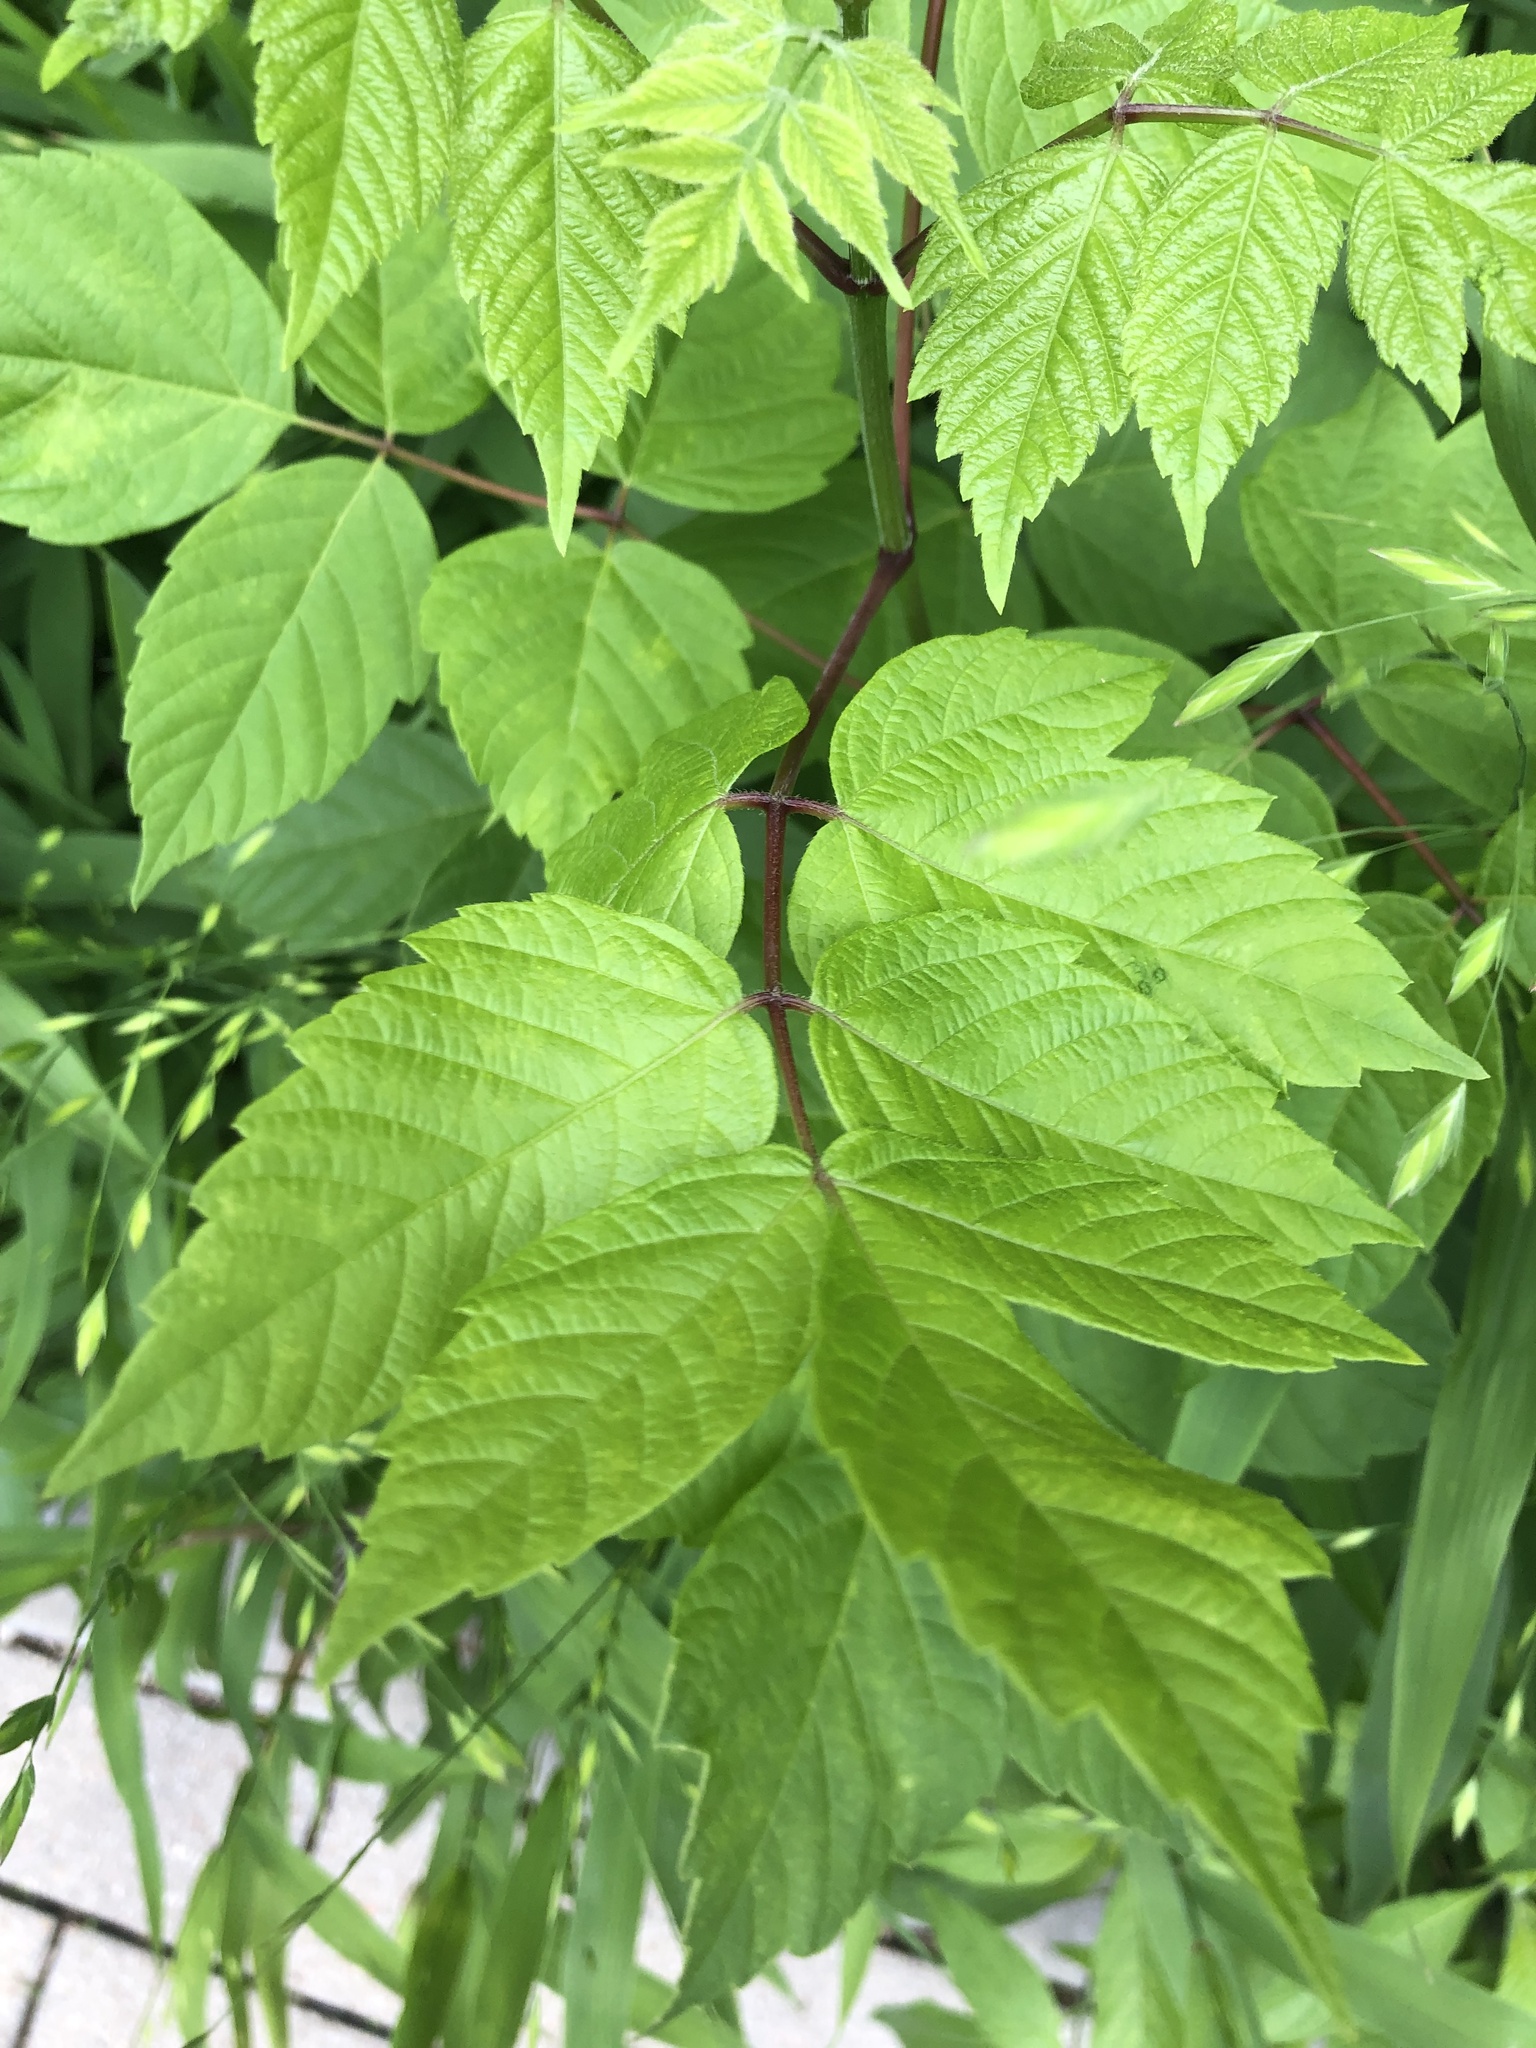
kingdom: Plantae
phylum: Tracheophyta
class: Magnoliopsida
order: Sapindales
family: Sapindaceae
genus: Acer
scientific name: Acer negundo
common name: Ashleaf maple
